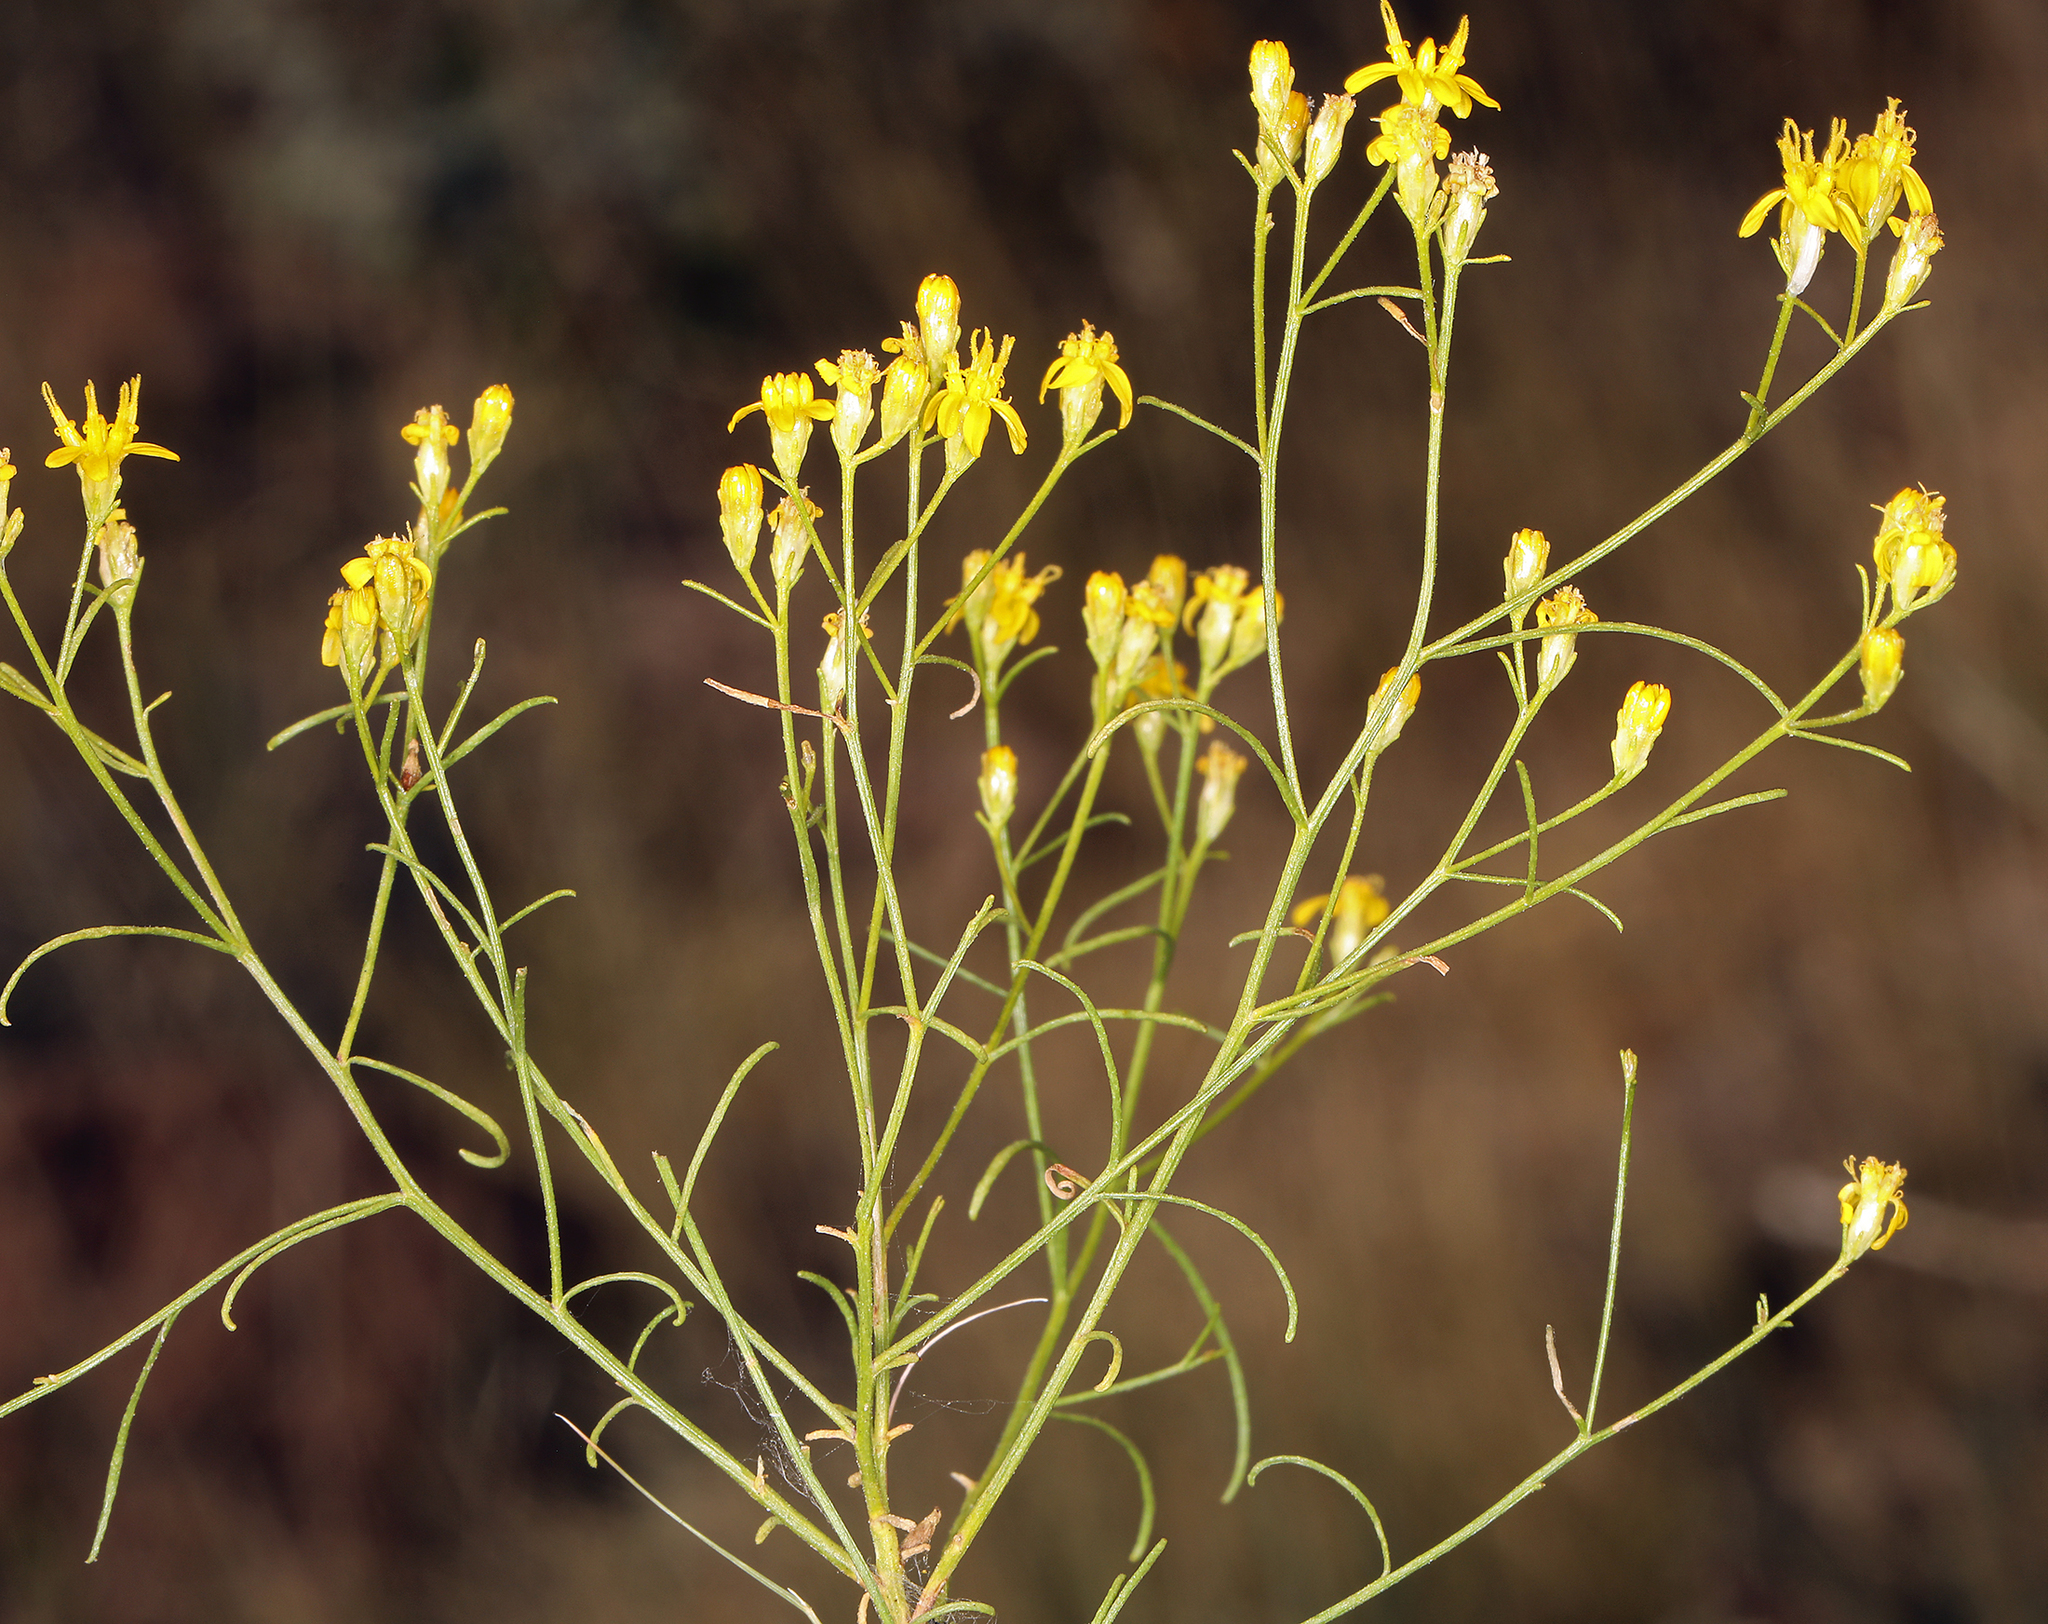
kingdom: Plantae
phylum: Tracheophyta
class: Magnoliopsida
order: Asterales
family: Asteraceae
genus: Gutierrezia
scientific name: Gutierrezia sarothrae
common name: Broom snakeweed
